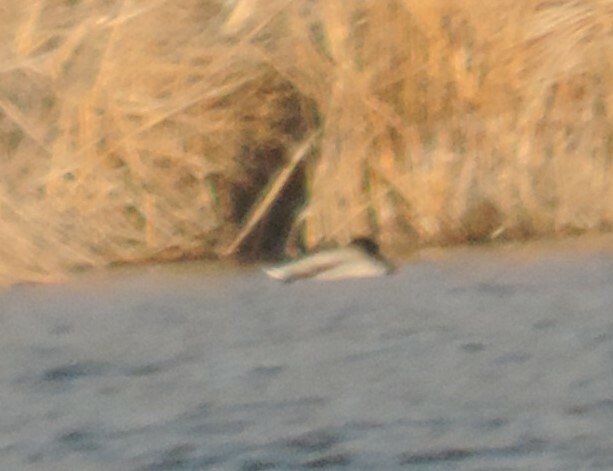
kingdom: Animalia
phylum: Chordata
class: Aves
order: Anseriformes
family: Anatidae
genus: Anas
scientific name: Anas platyrhynchos
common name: Mallard
